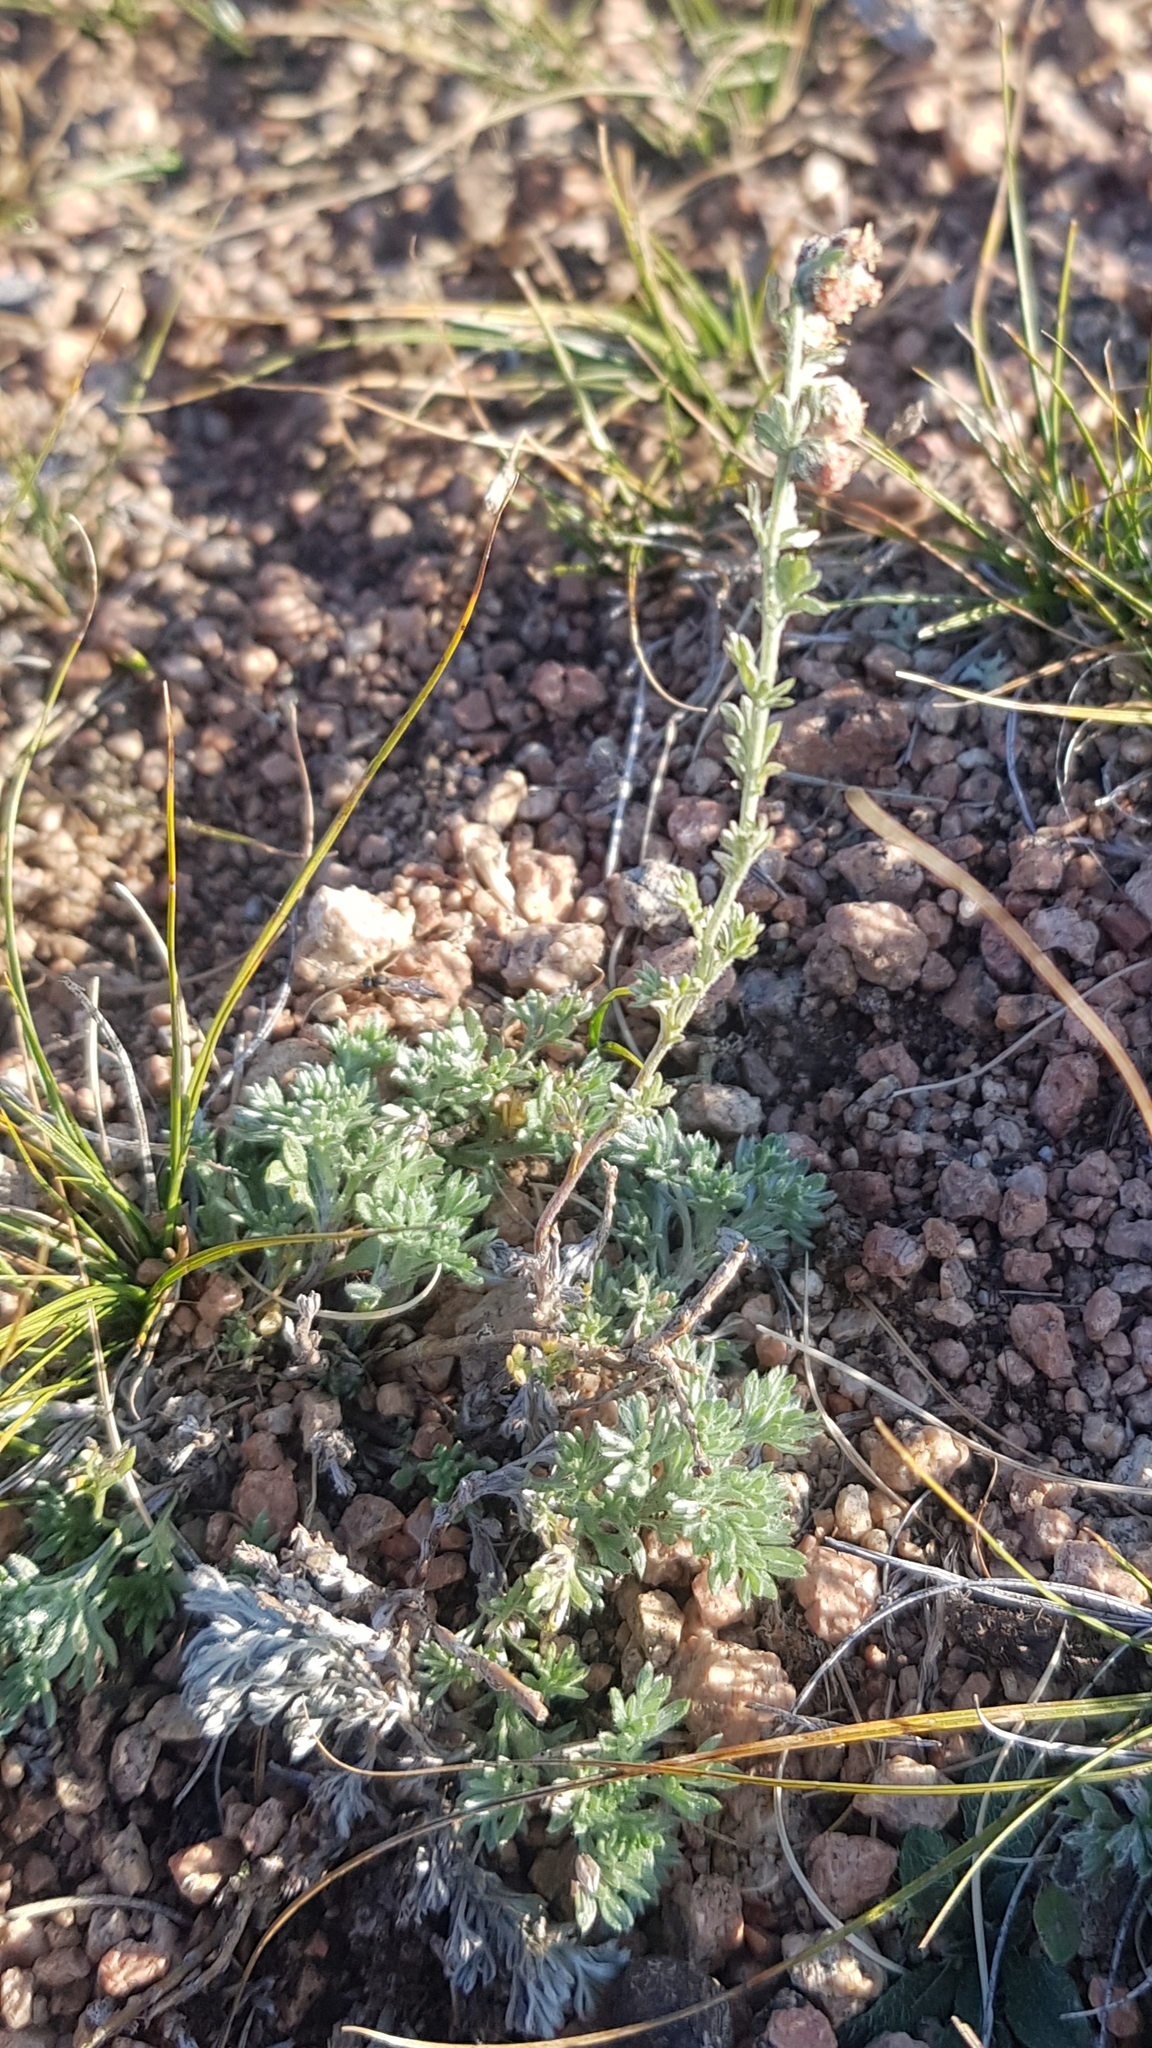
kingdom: Plantae
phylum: Tracheophyta
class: Magnoliopsida
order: Asterales
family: Asteraceae
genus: Artemisia
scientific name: Artemisia frigida
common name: Prairie sagewort
